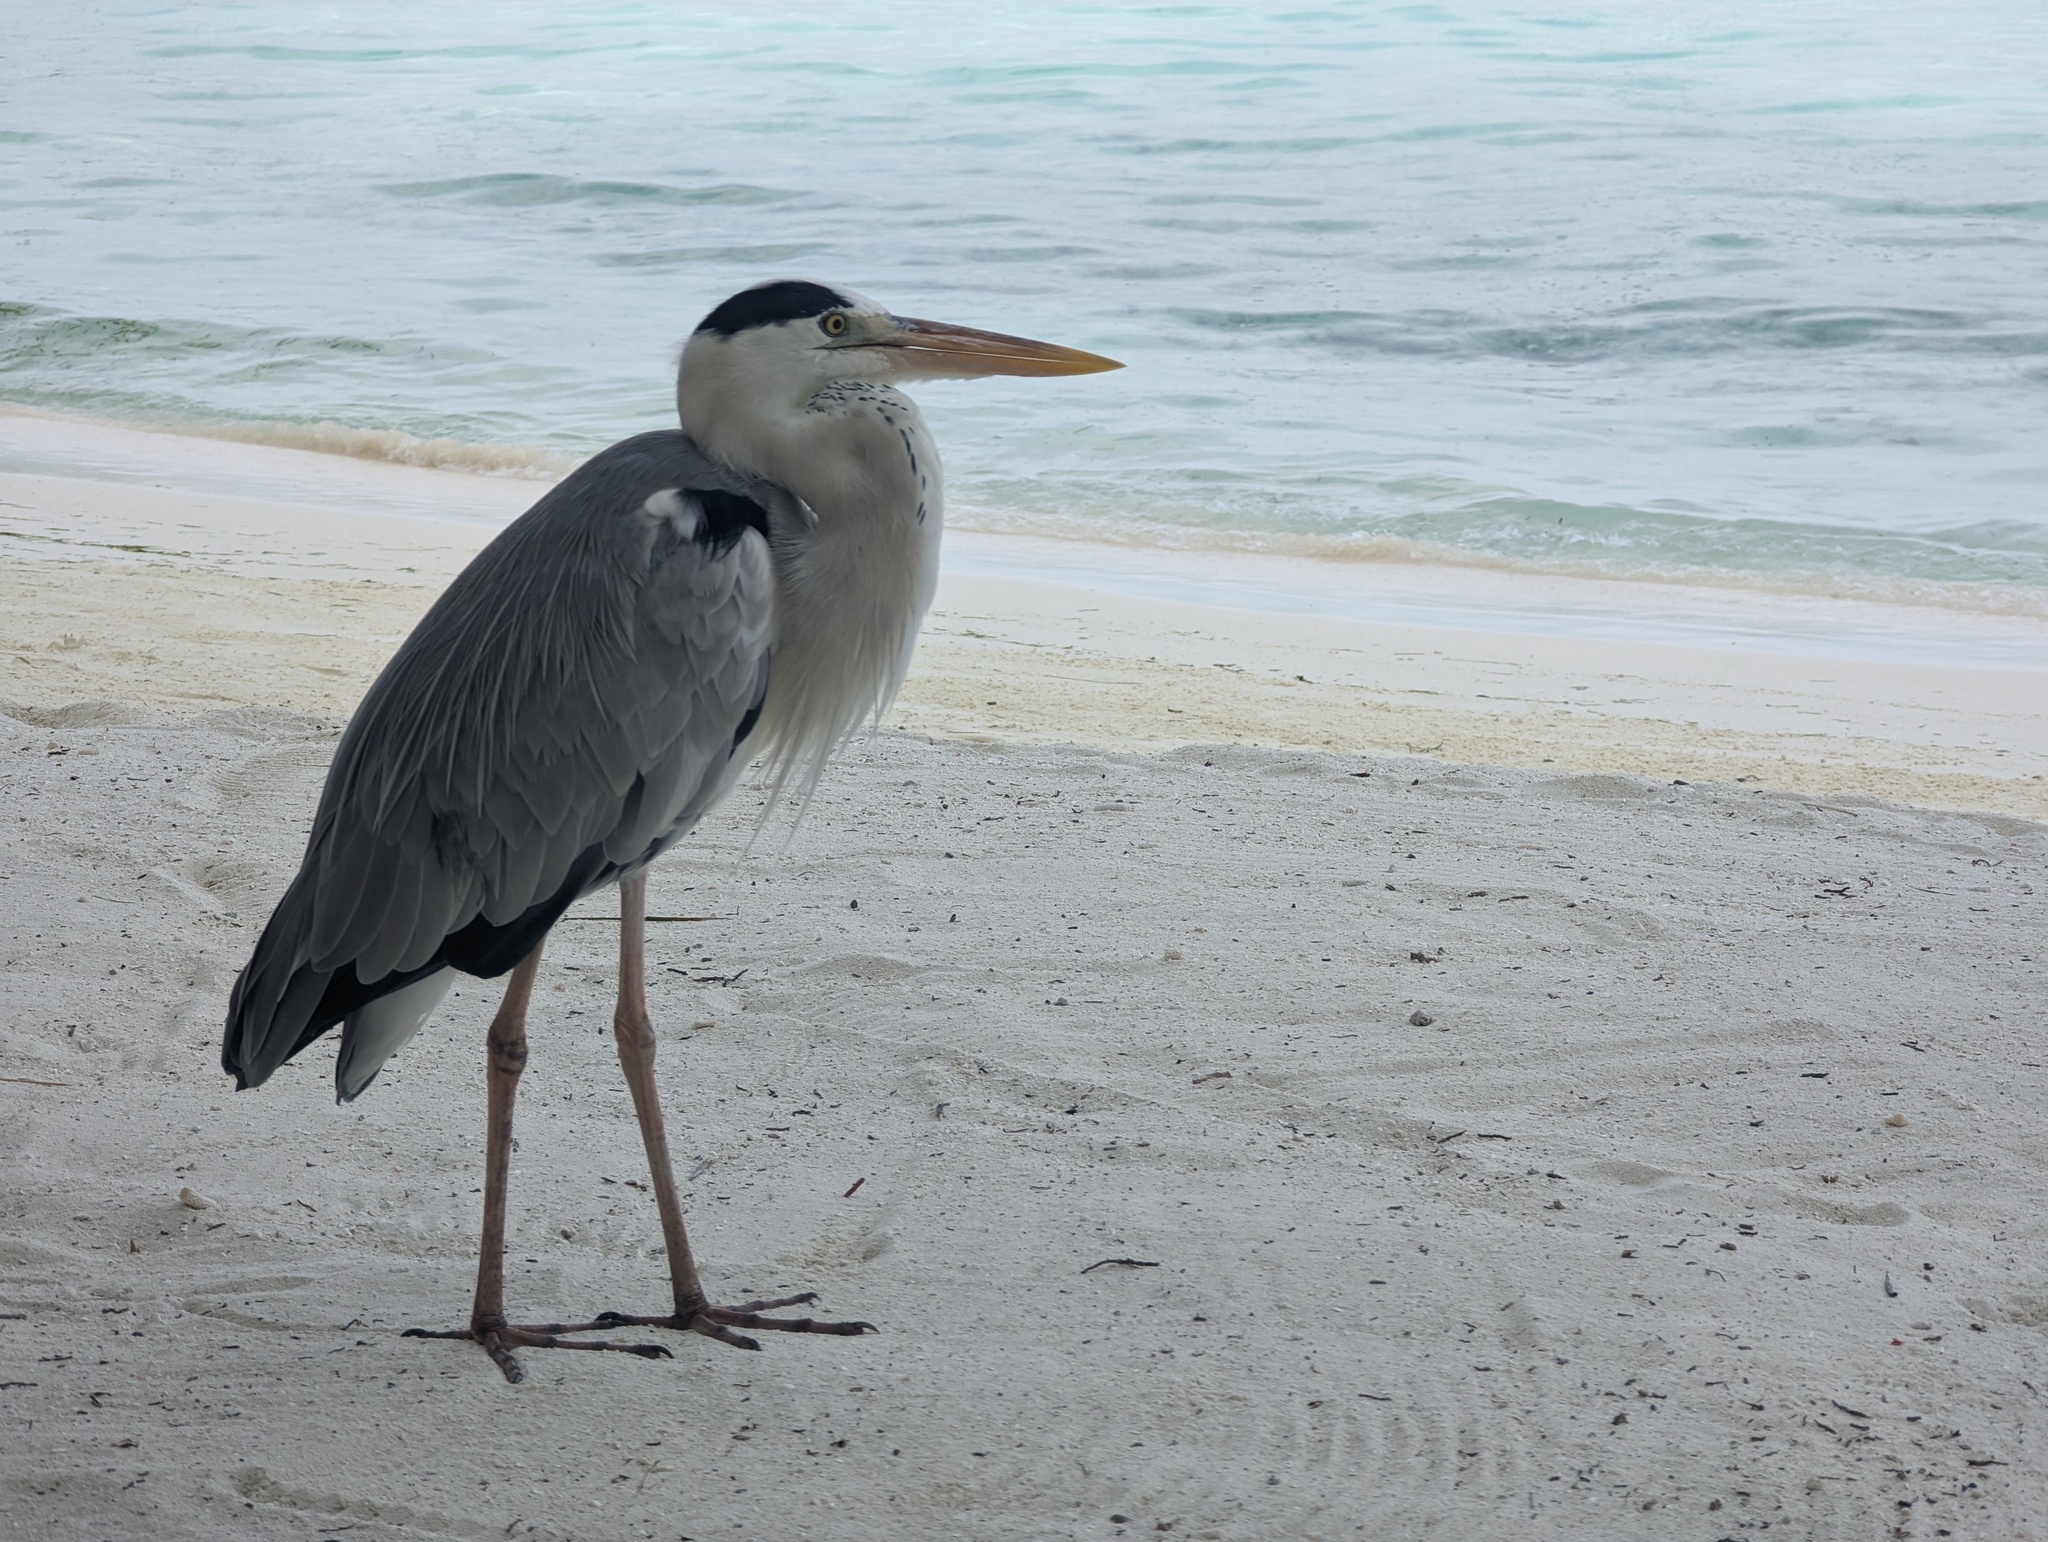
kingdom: Animalia
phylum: Chordata
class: Aves
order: Pelecaniformes
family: Ardeidae
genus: Ardea
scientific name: Ardea cinerea
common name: Grey heron
